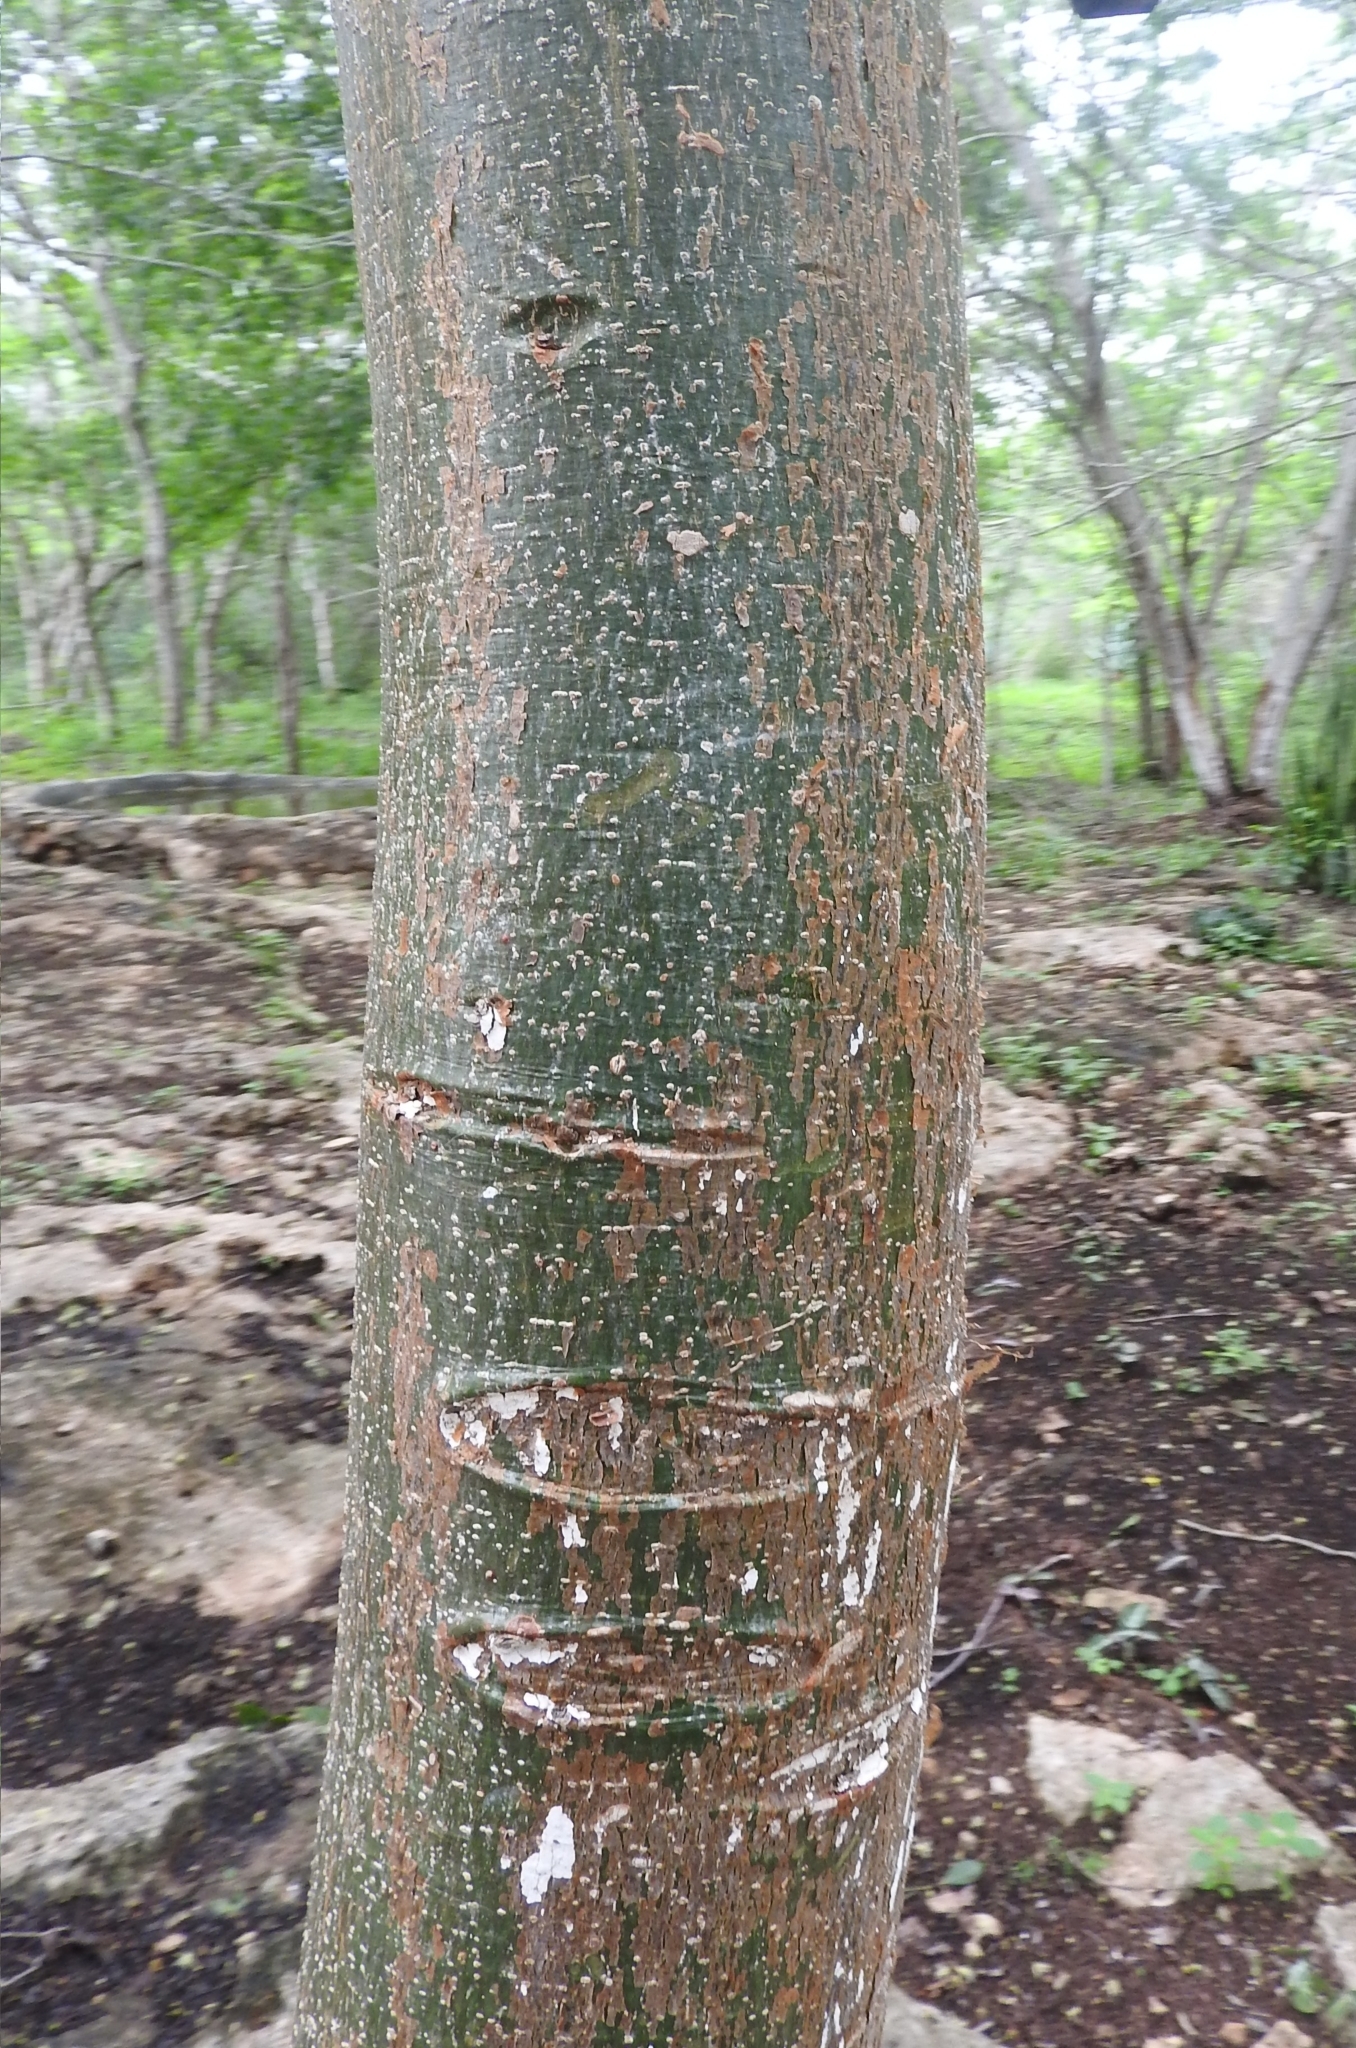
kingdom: Plantae
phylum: Tracheophyta
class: Magnoliopsida
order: Sapindales
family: Burseraceae
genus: Bursera
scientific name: Bursera simaruba
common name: Turpentine tree
